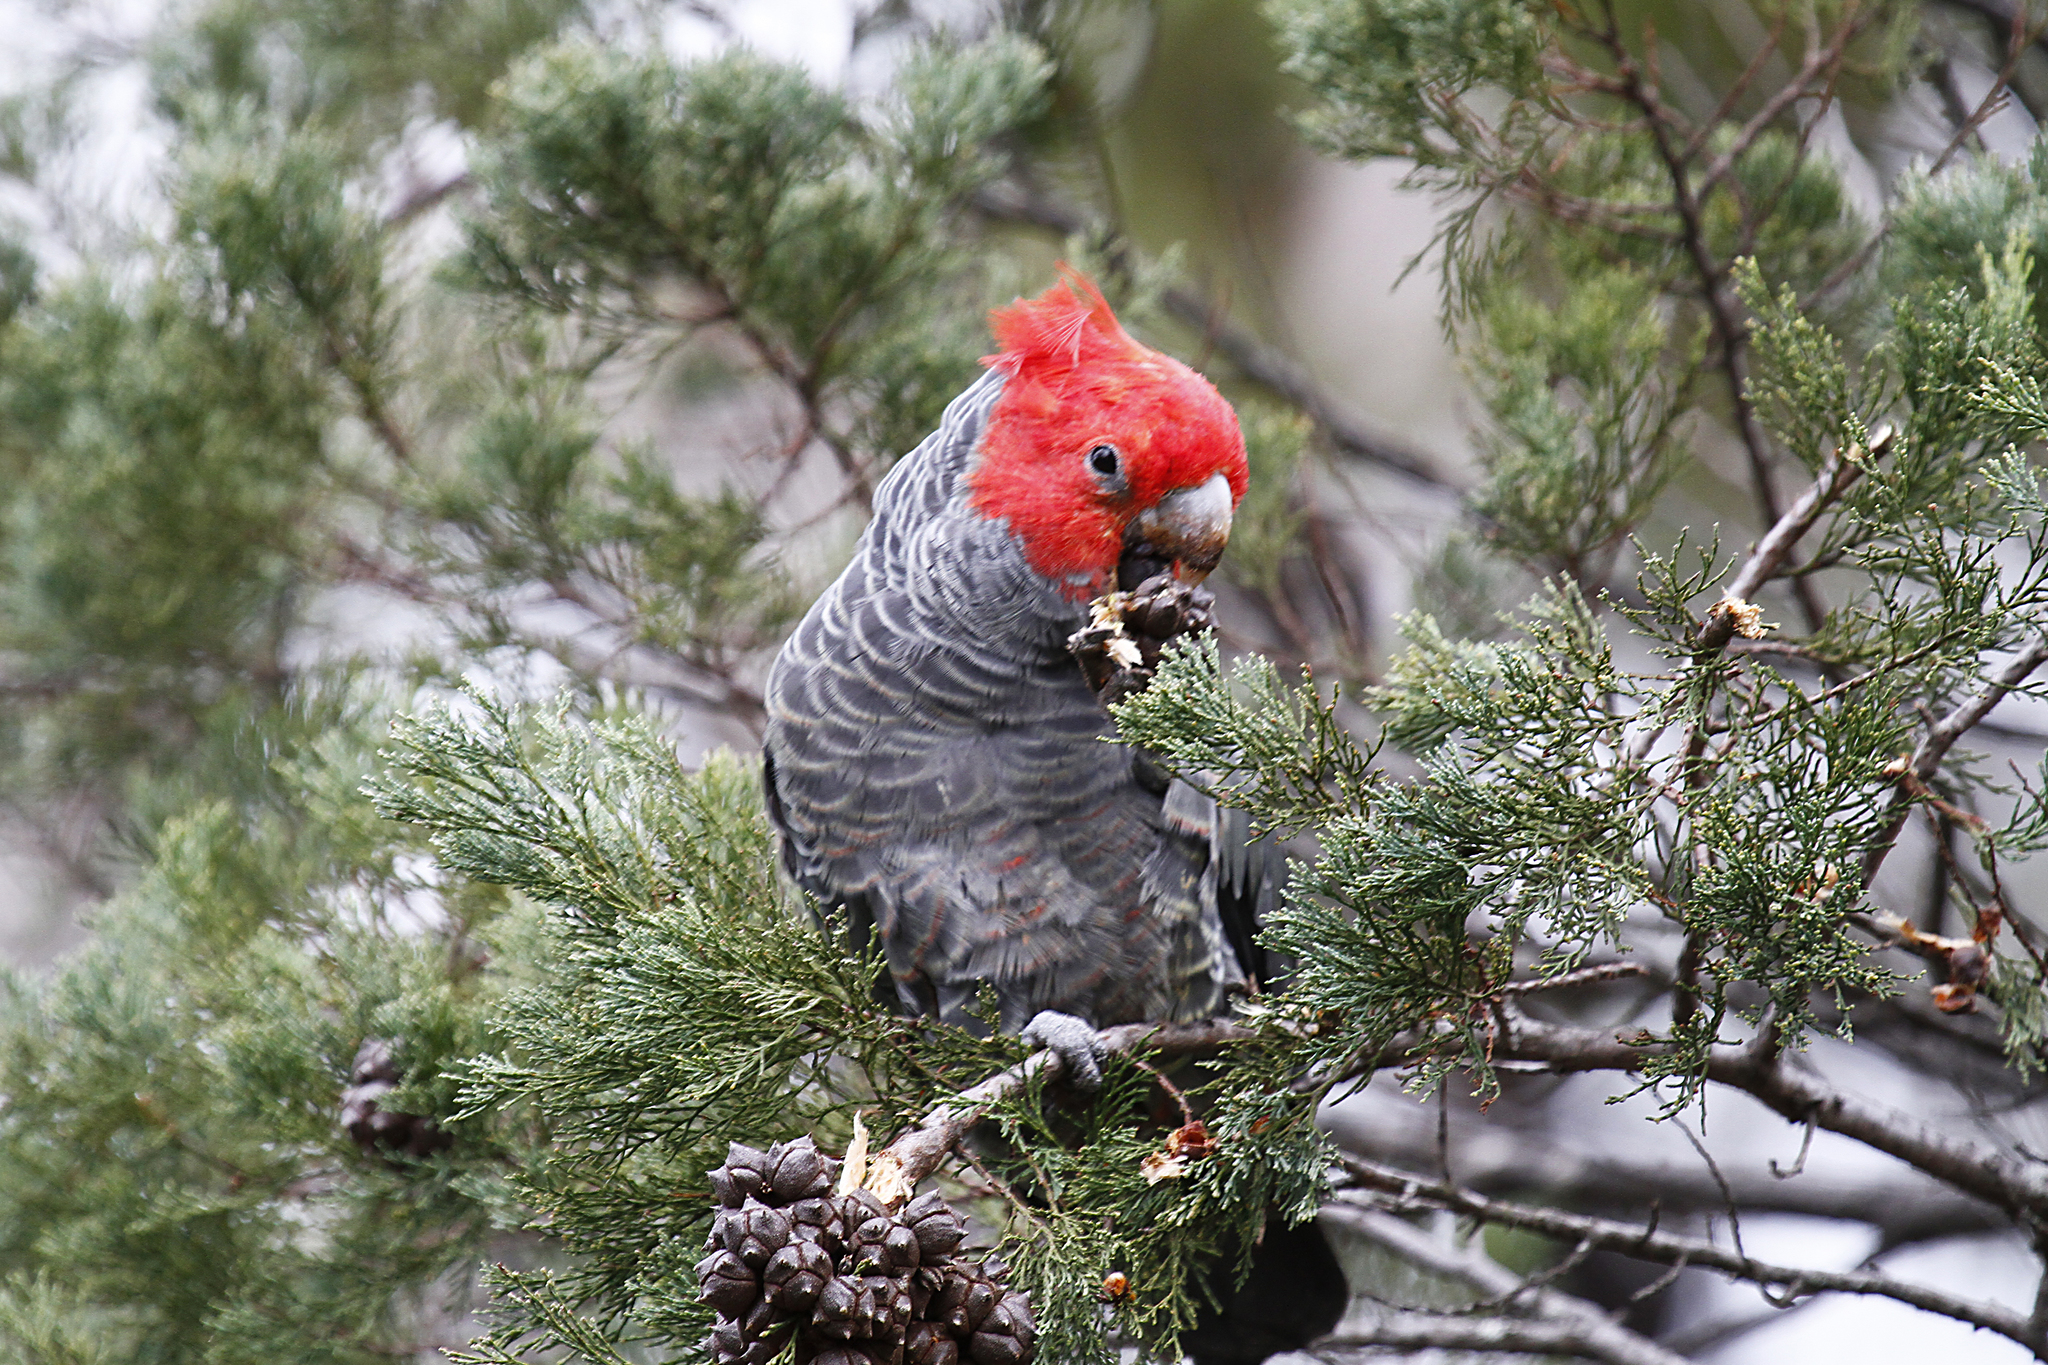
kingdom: Animalia
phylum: Chordata
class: Aves
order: Psittaciformes
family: Psittacidae
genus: Callocephalon
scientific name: Callocephalon fimbriatum
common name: Gang-gang cockatoo
